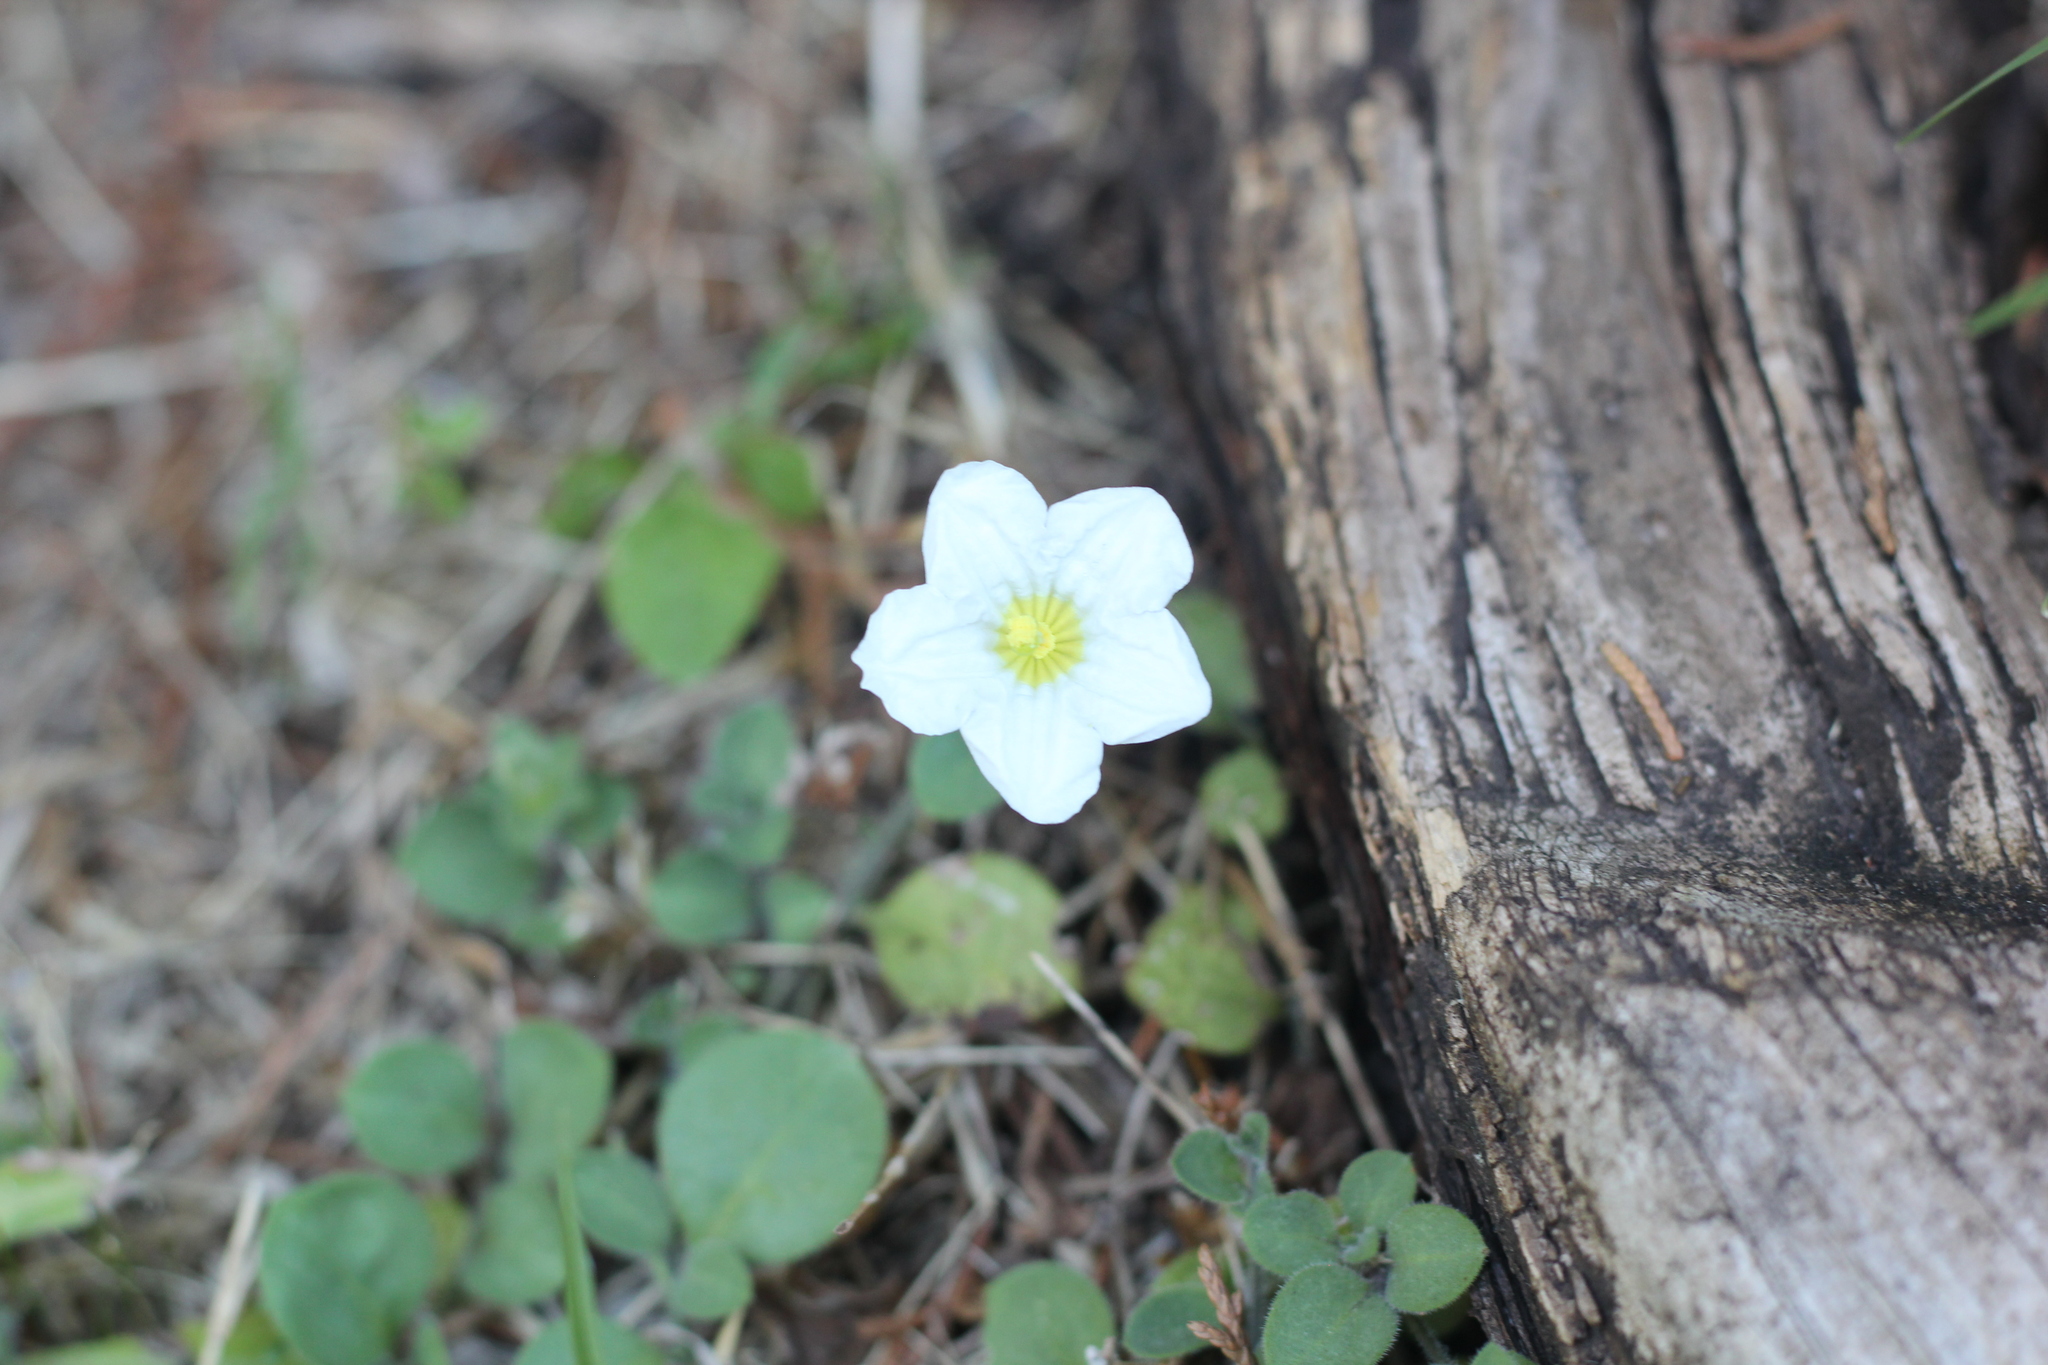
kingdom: Plantae
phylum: Tracheophyta
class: Magnoliopsida
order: Solanales
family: Solanaceae
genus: Nierembergia
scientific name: Nierembergia calycina
